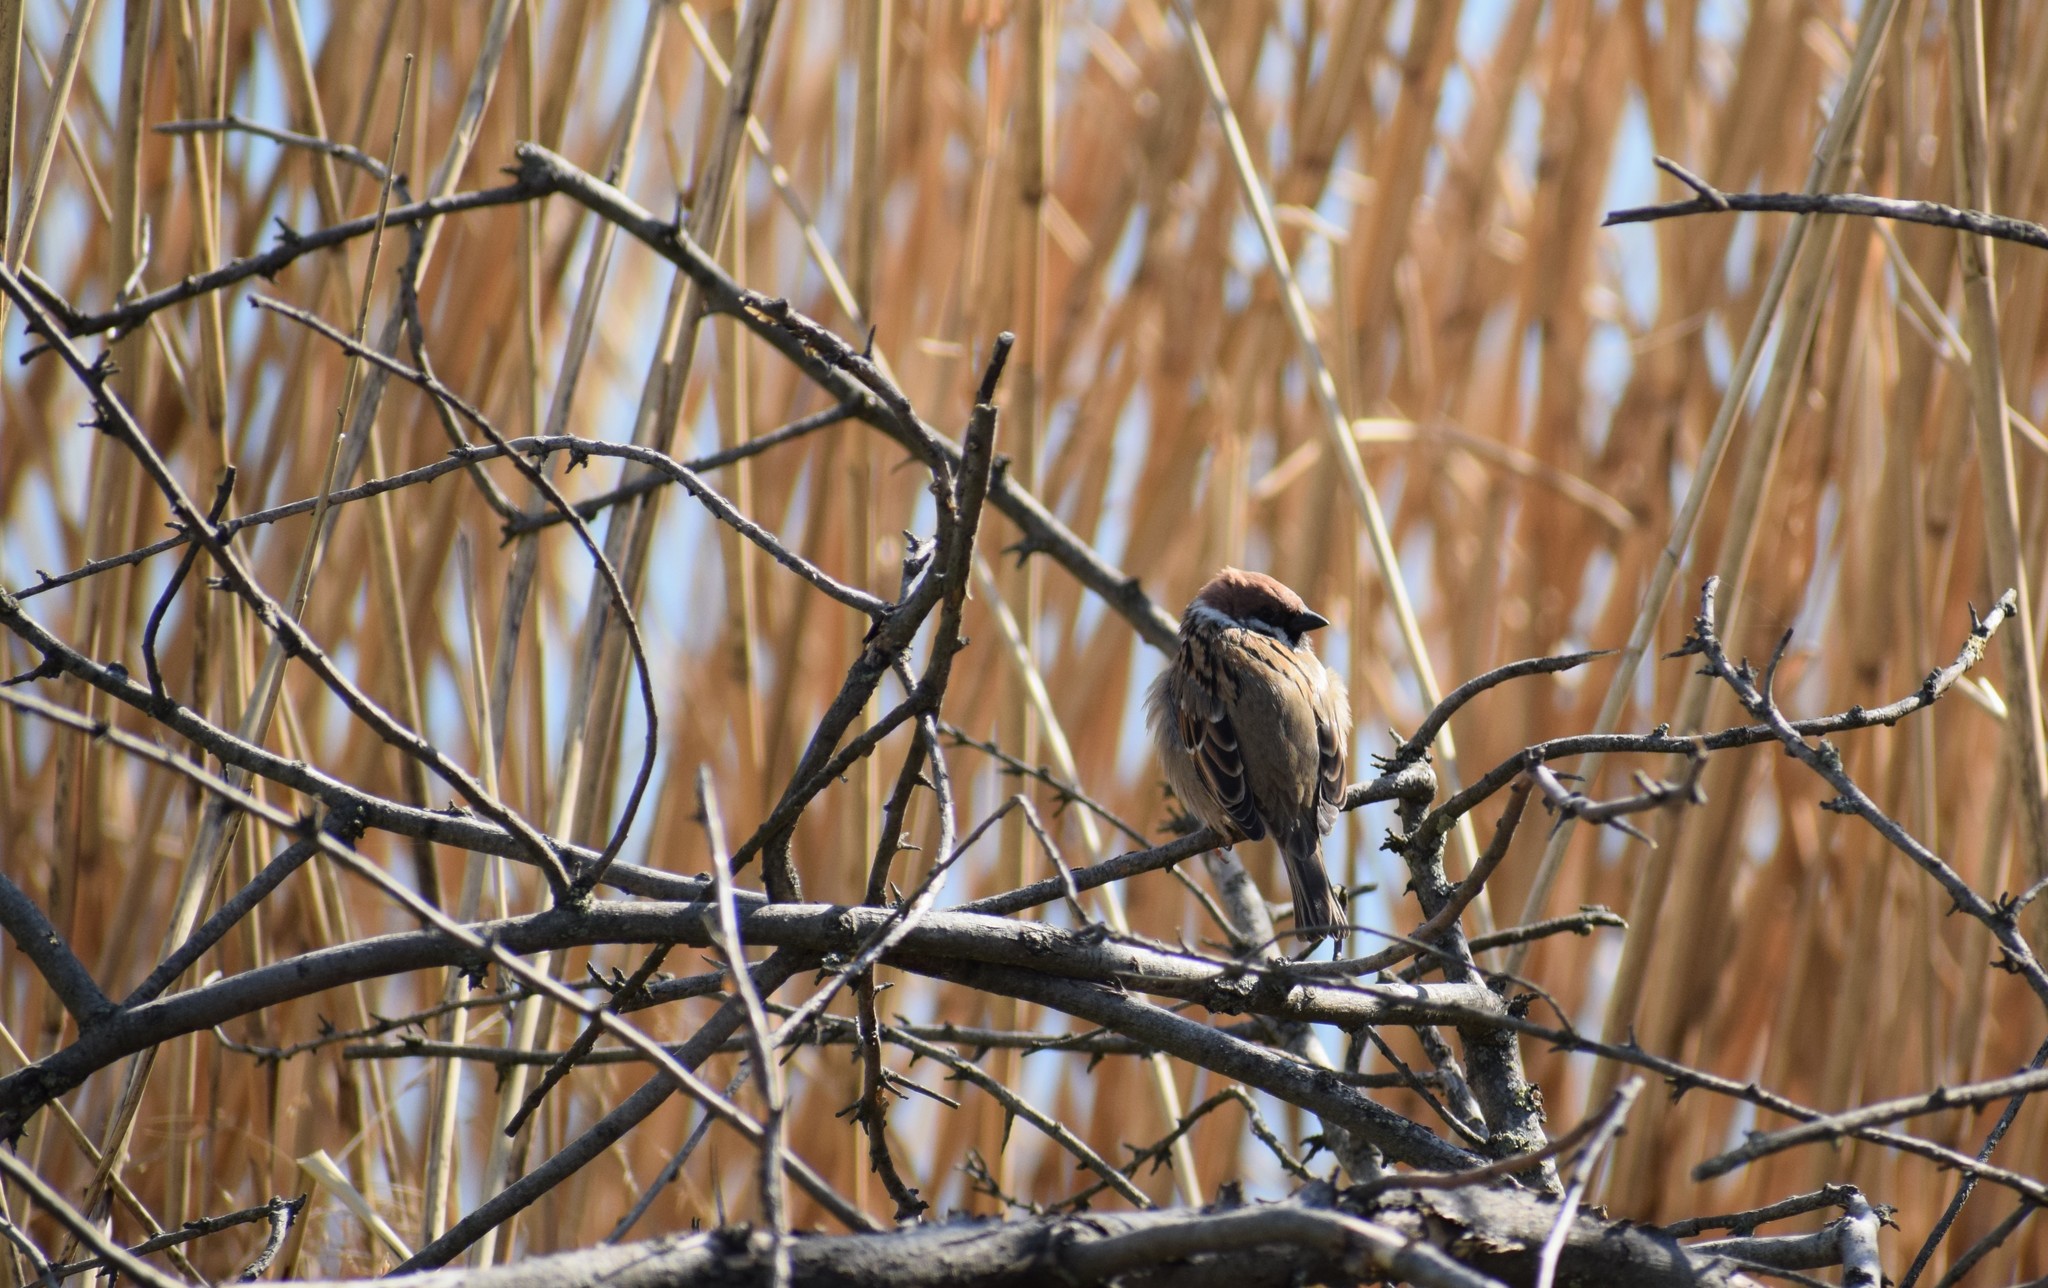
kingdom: Animalia
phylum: Chordata
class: Aves
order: Passeriformes
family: Passeridae
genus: Passer
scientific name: Passer montanus
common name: Eurasian tree sparrow
